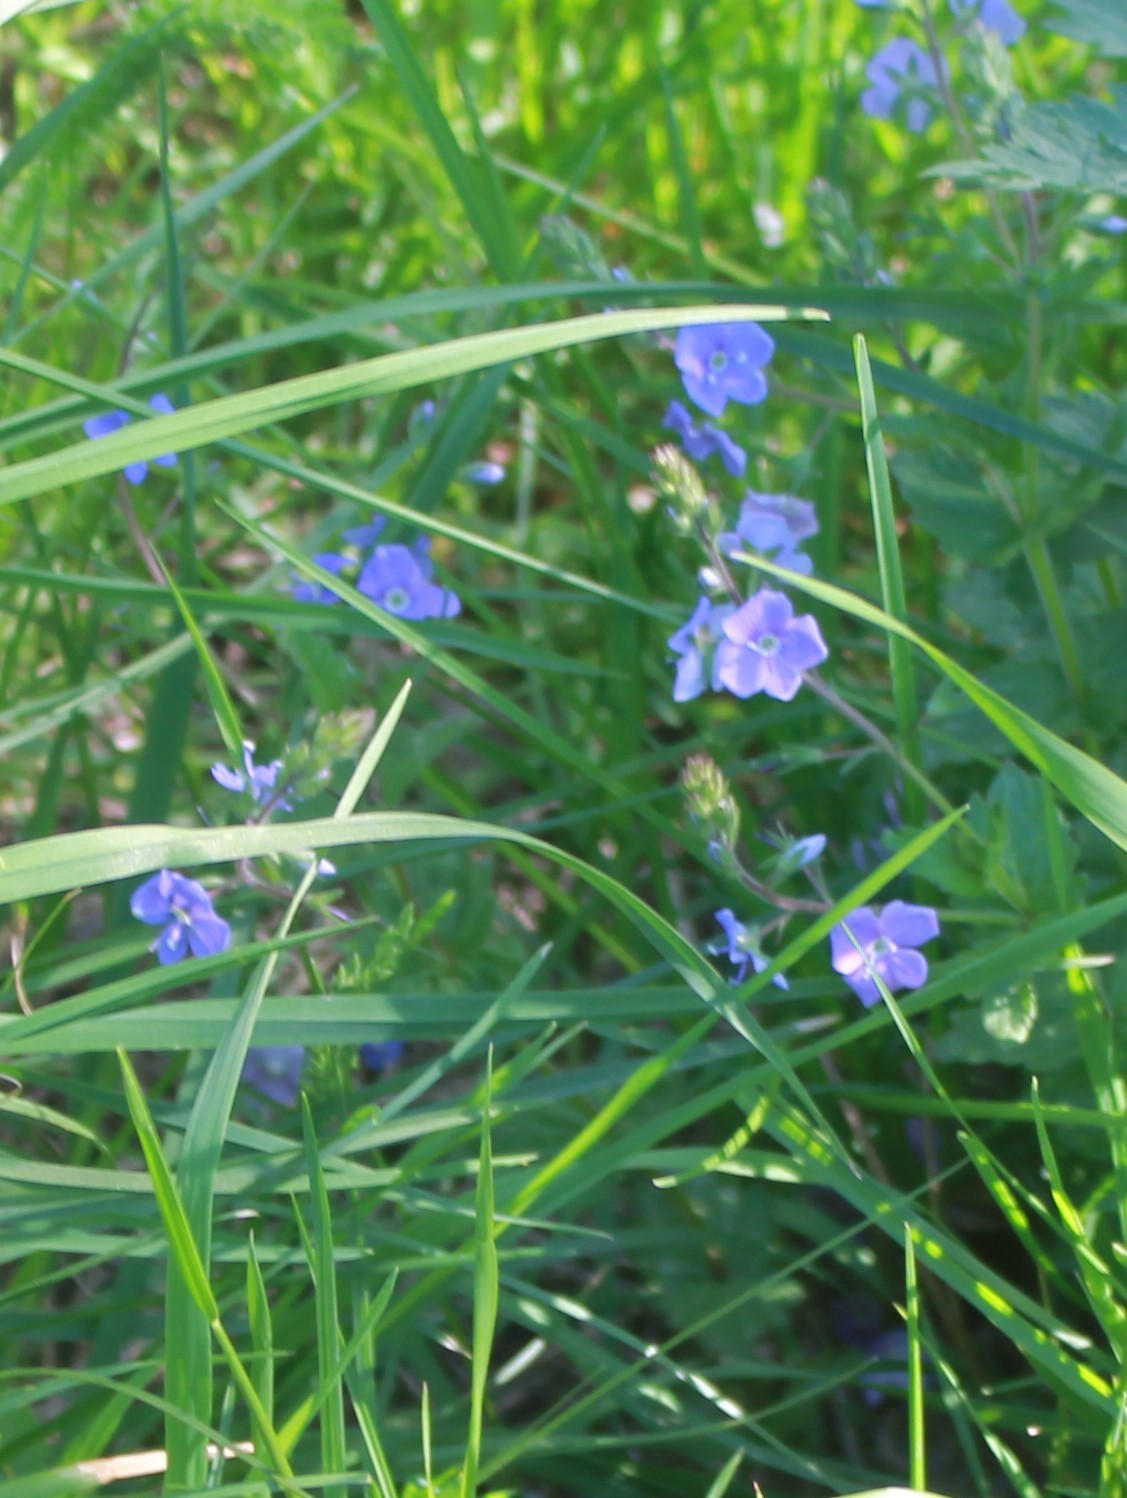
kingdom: Plantae
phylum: Tracheophyta
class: Magnoliopsida
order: Lamiales
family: Plantaginaceae
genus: Veronica
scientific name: Veronica chamaedrys
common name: Germander speedwell
